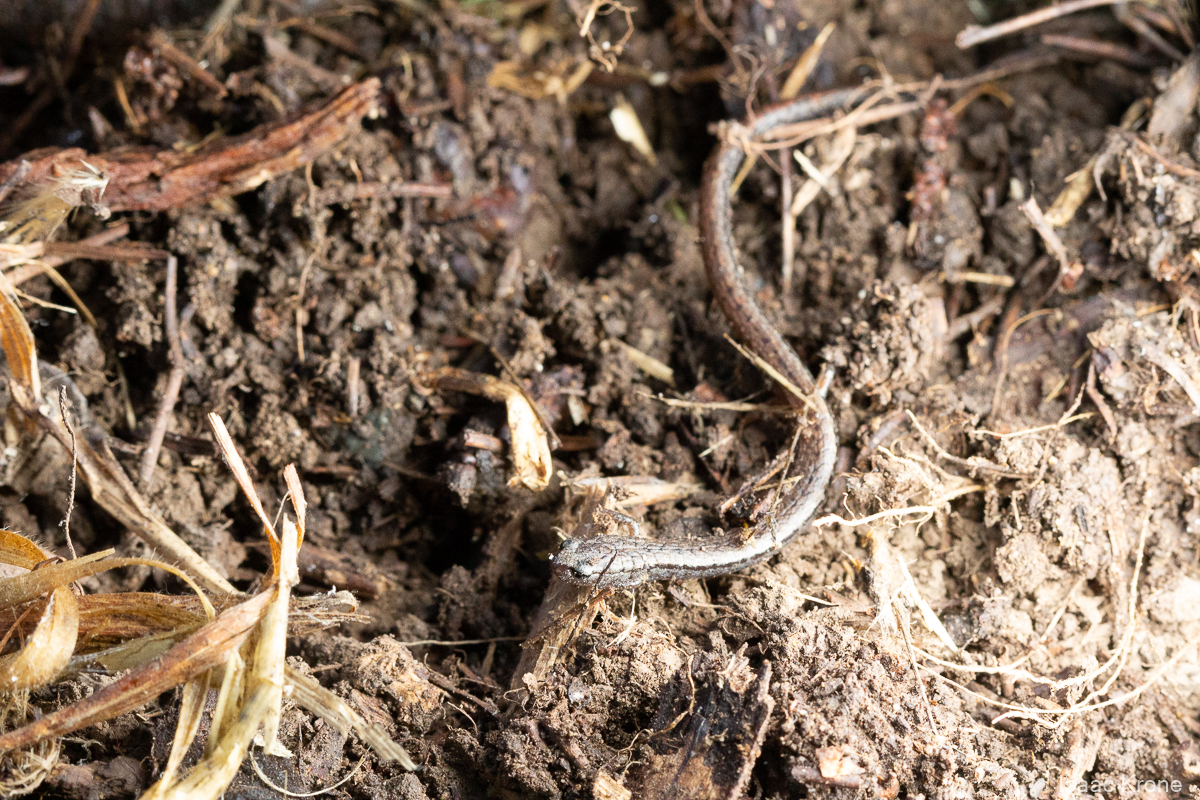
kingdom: Animalia
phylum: Chordata
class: Amphibia
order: Caudata
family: Plethodontidae
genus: Batrachoseps
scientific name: Batrachoseps attenuatus
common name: California slender salamander
